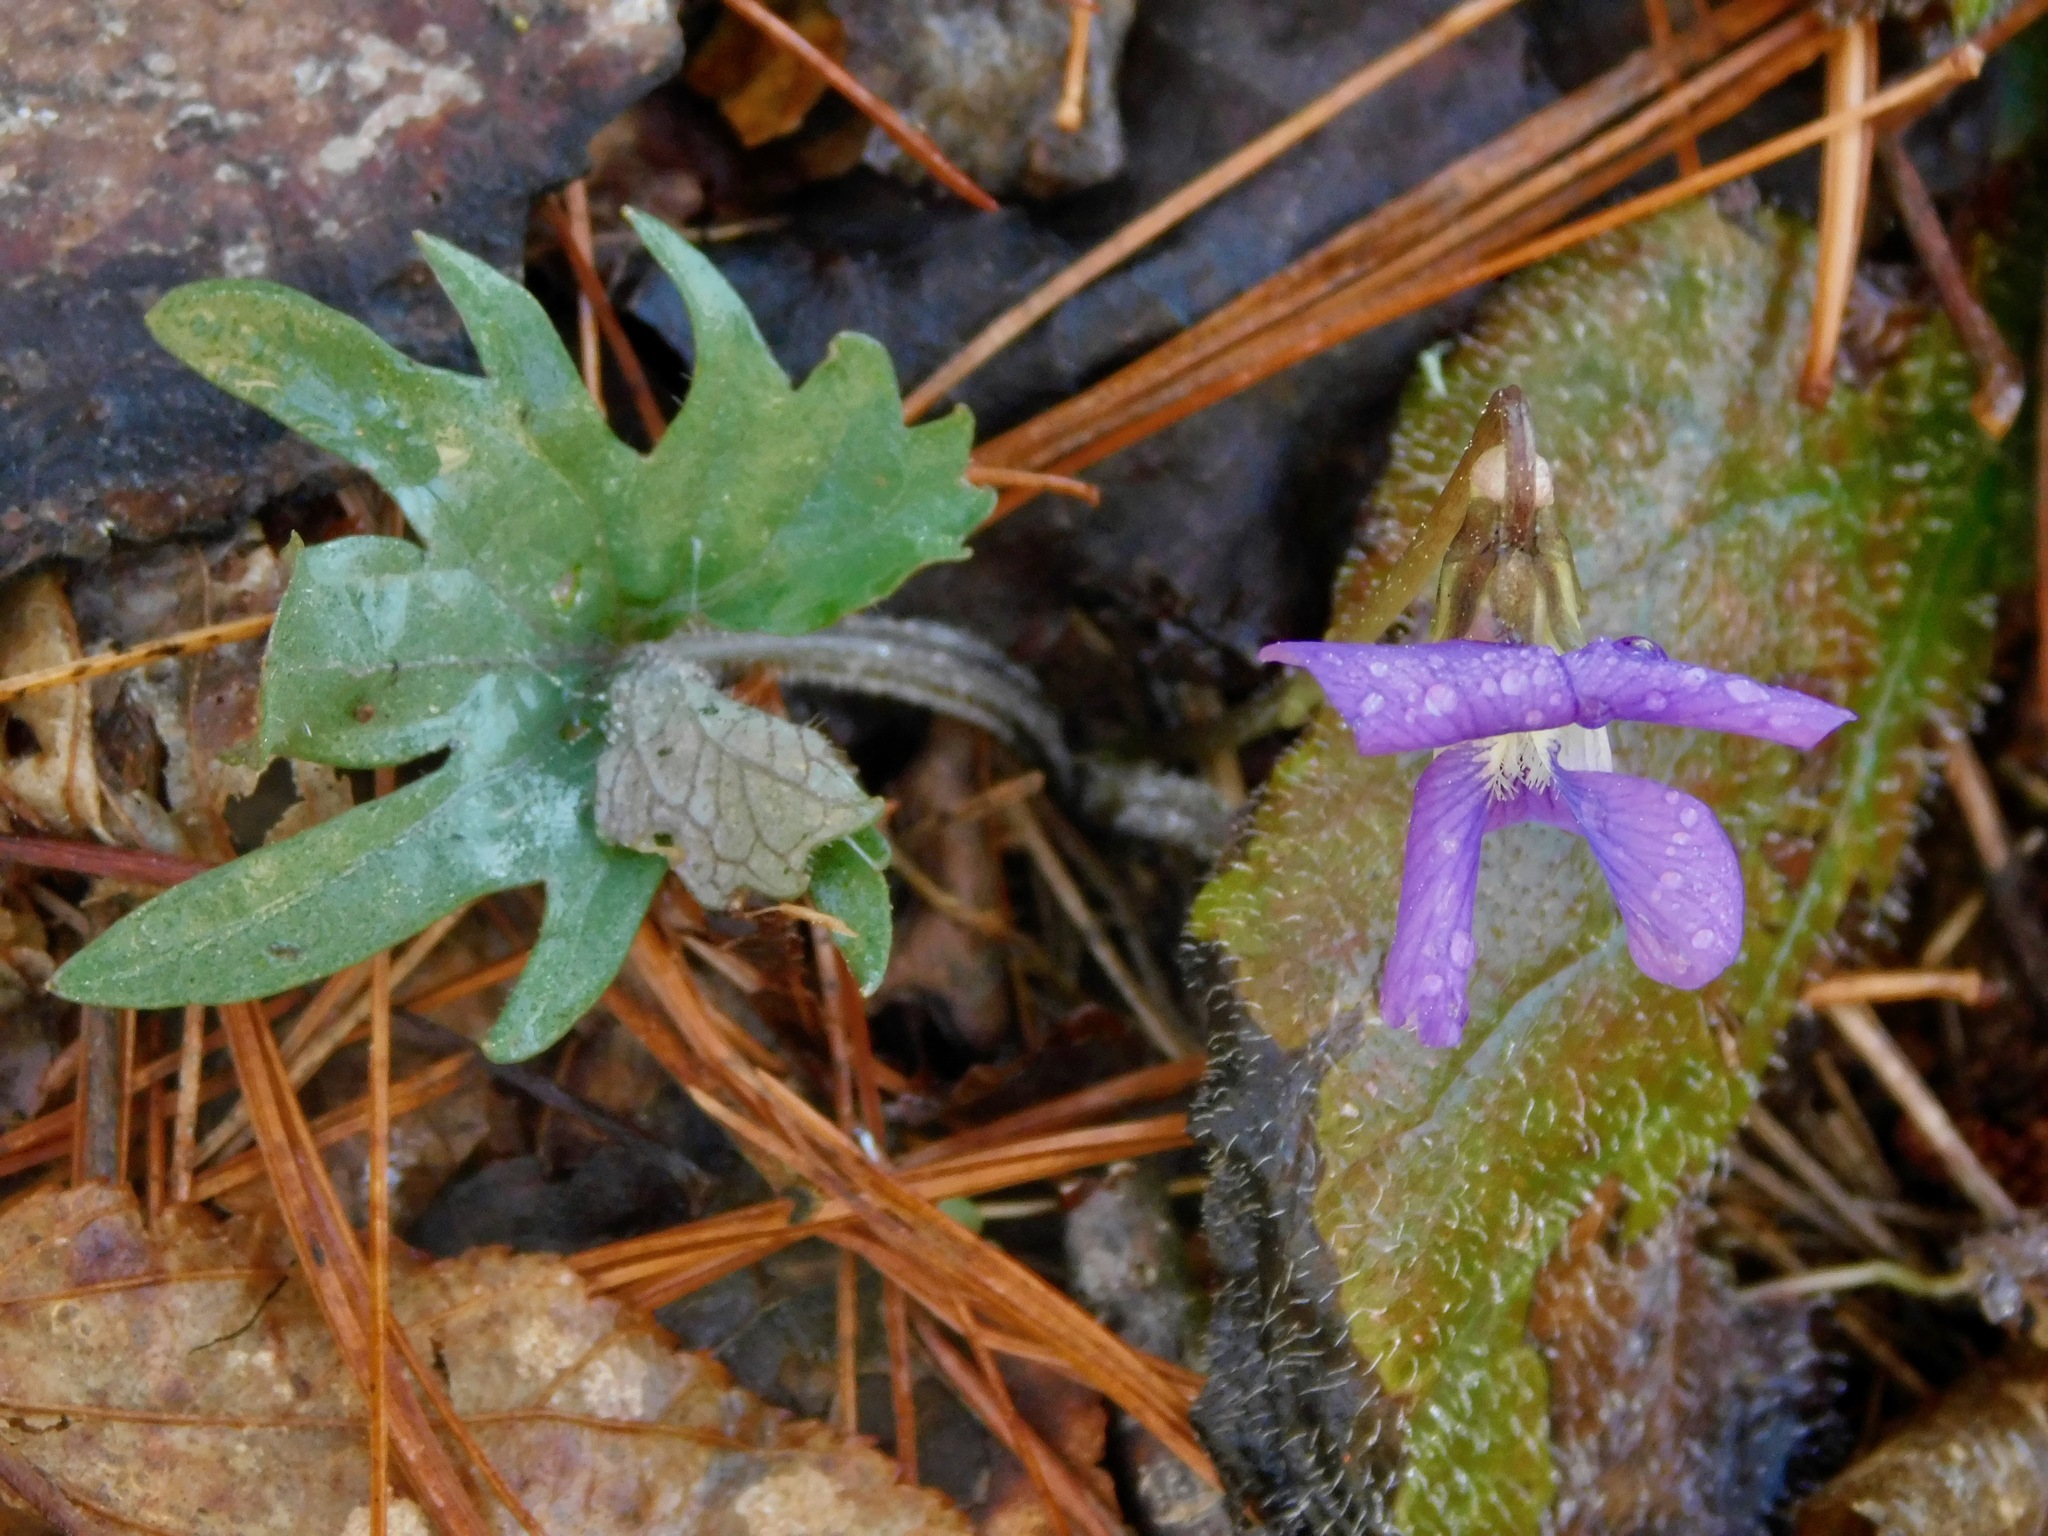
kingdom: Plantae
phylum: Tracheophyta
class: Magnoliopsida
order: Malpighiales
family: Violaceae
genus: Viola
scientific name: Viola palmata
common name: Early blue violet
